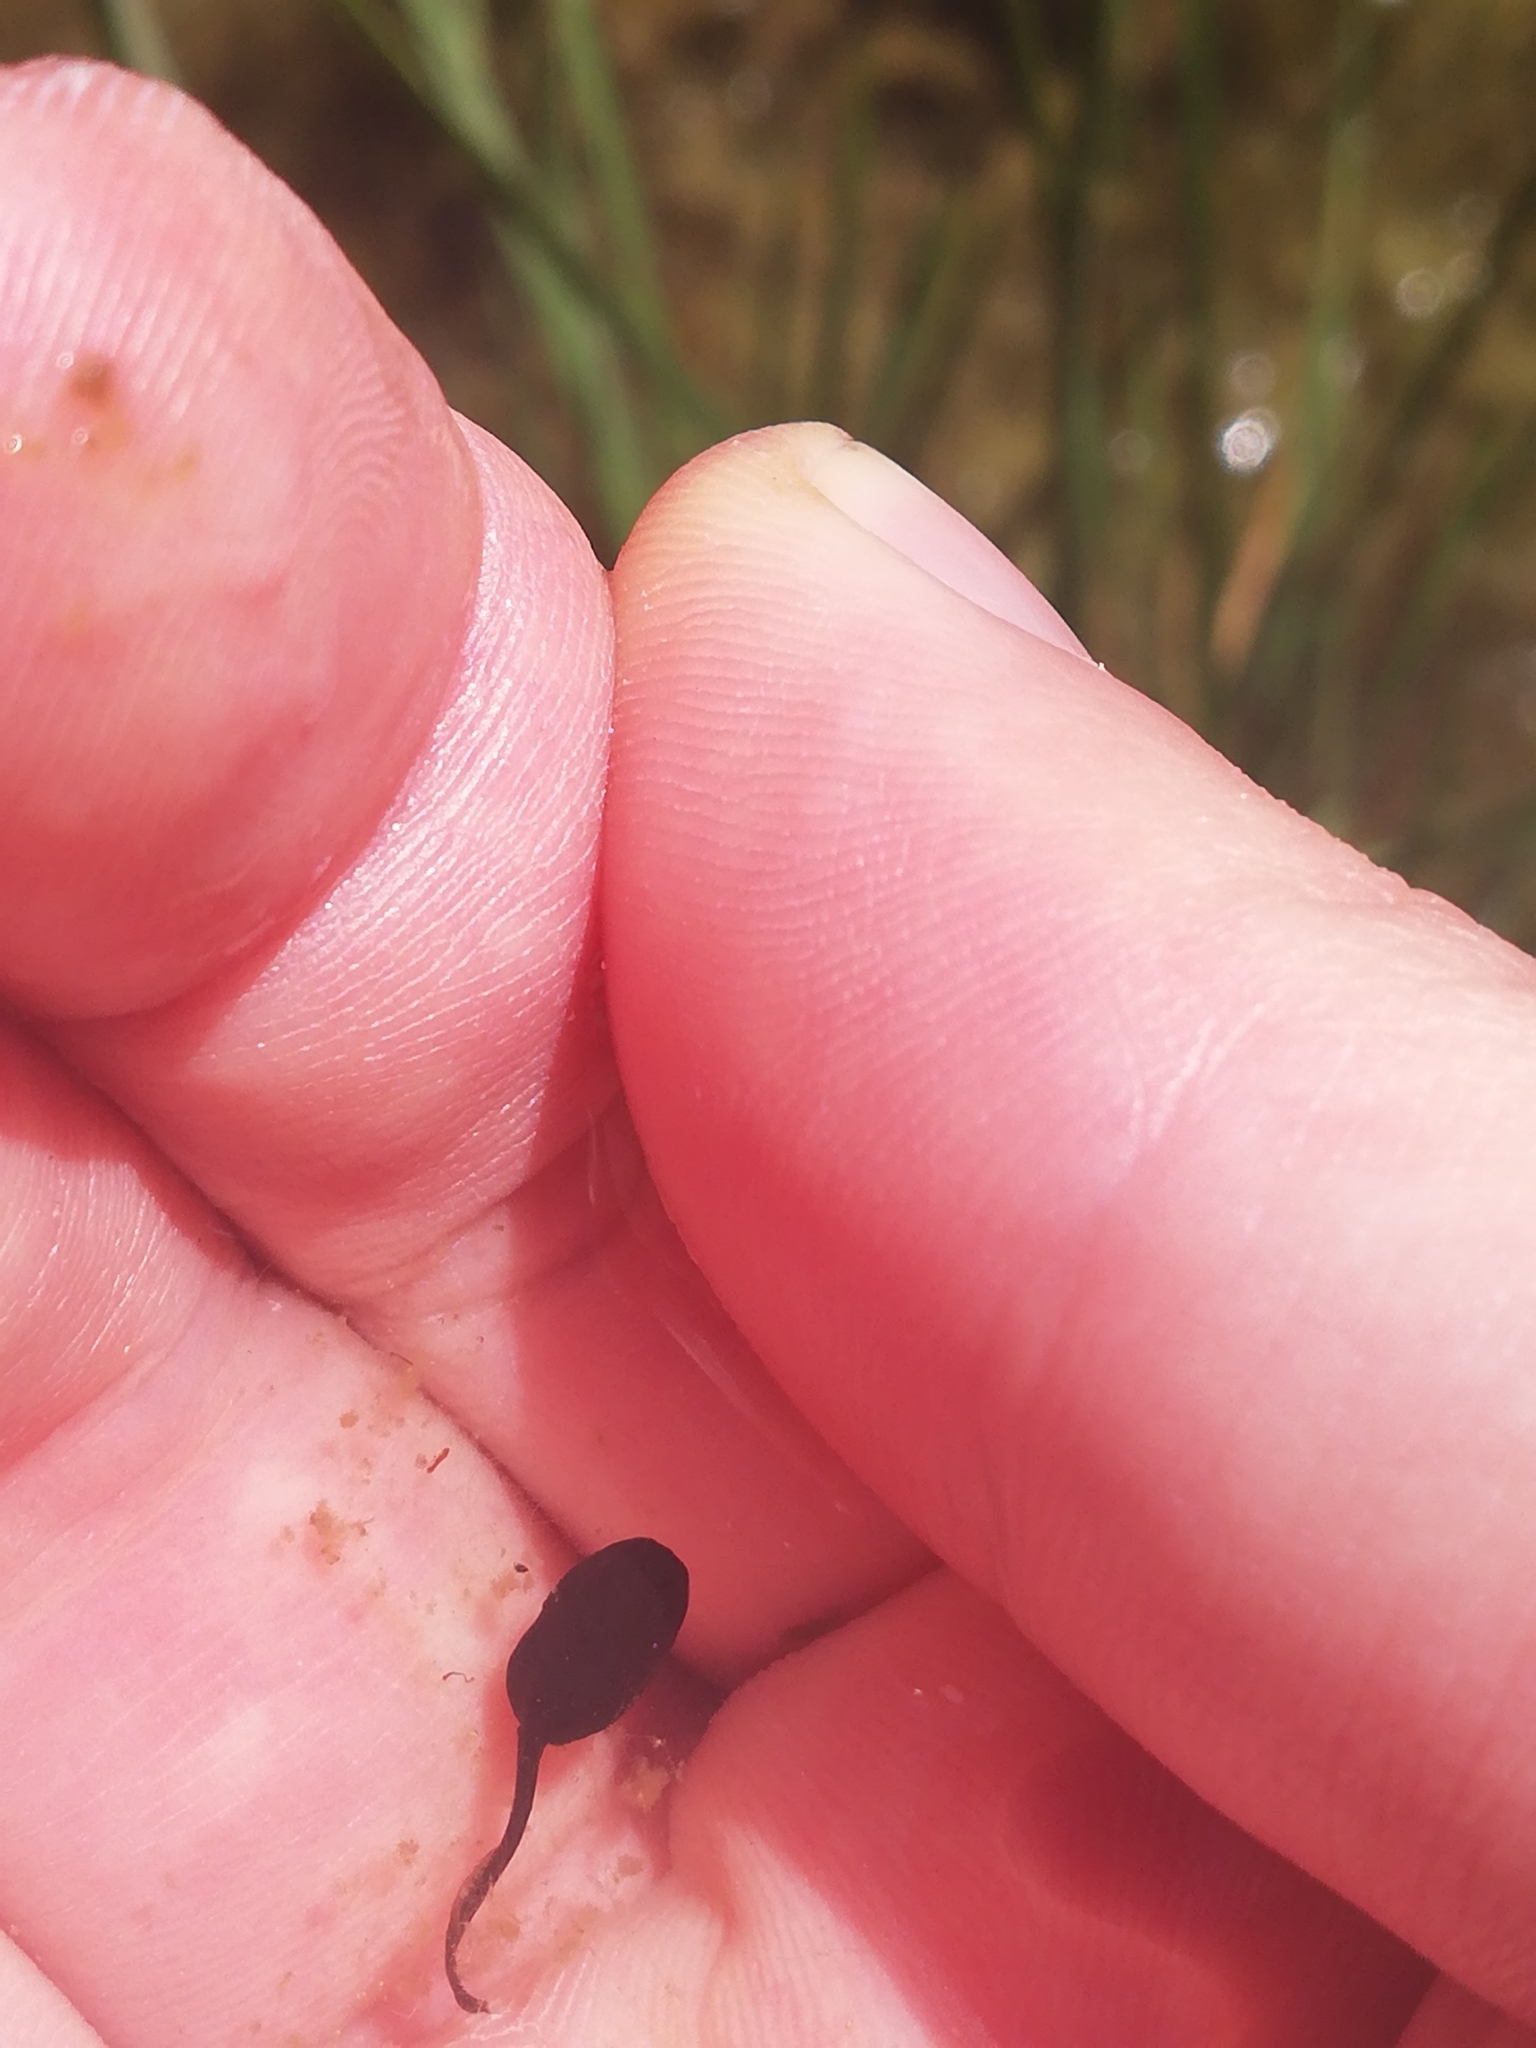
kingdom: Animalia
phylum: Chordata
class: Amphibia
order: Anura
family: Bufonidae
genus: Bufo
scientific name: Bufo bufo
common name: Common toad
